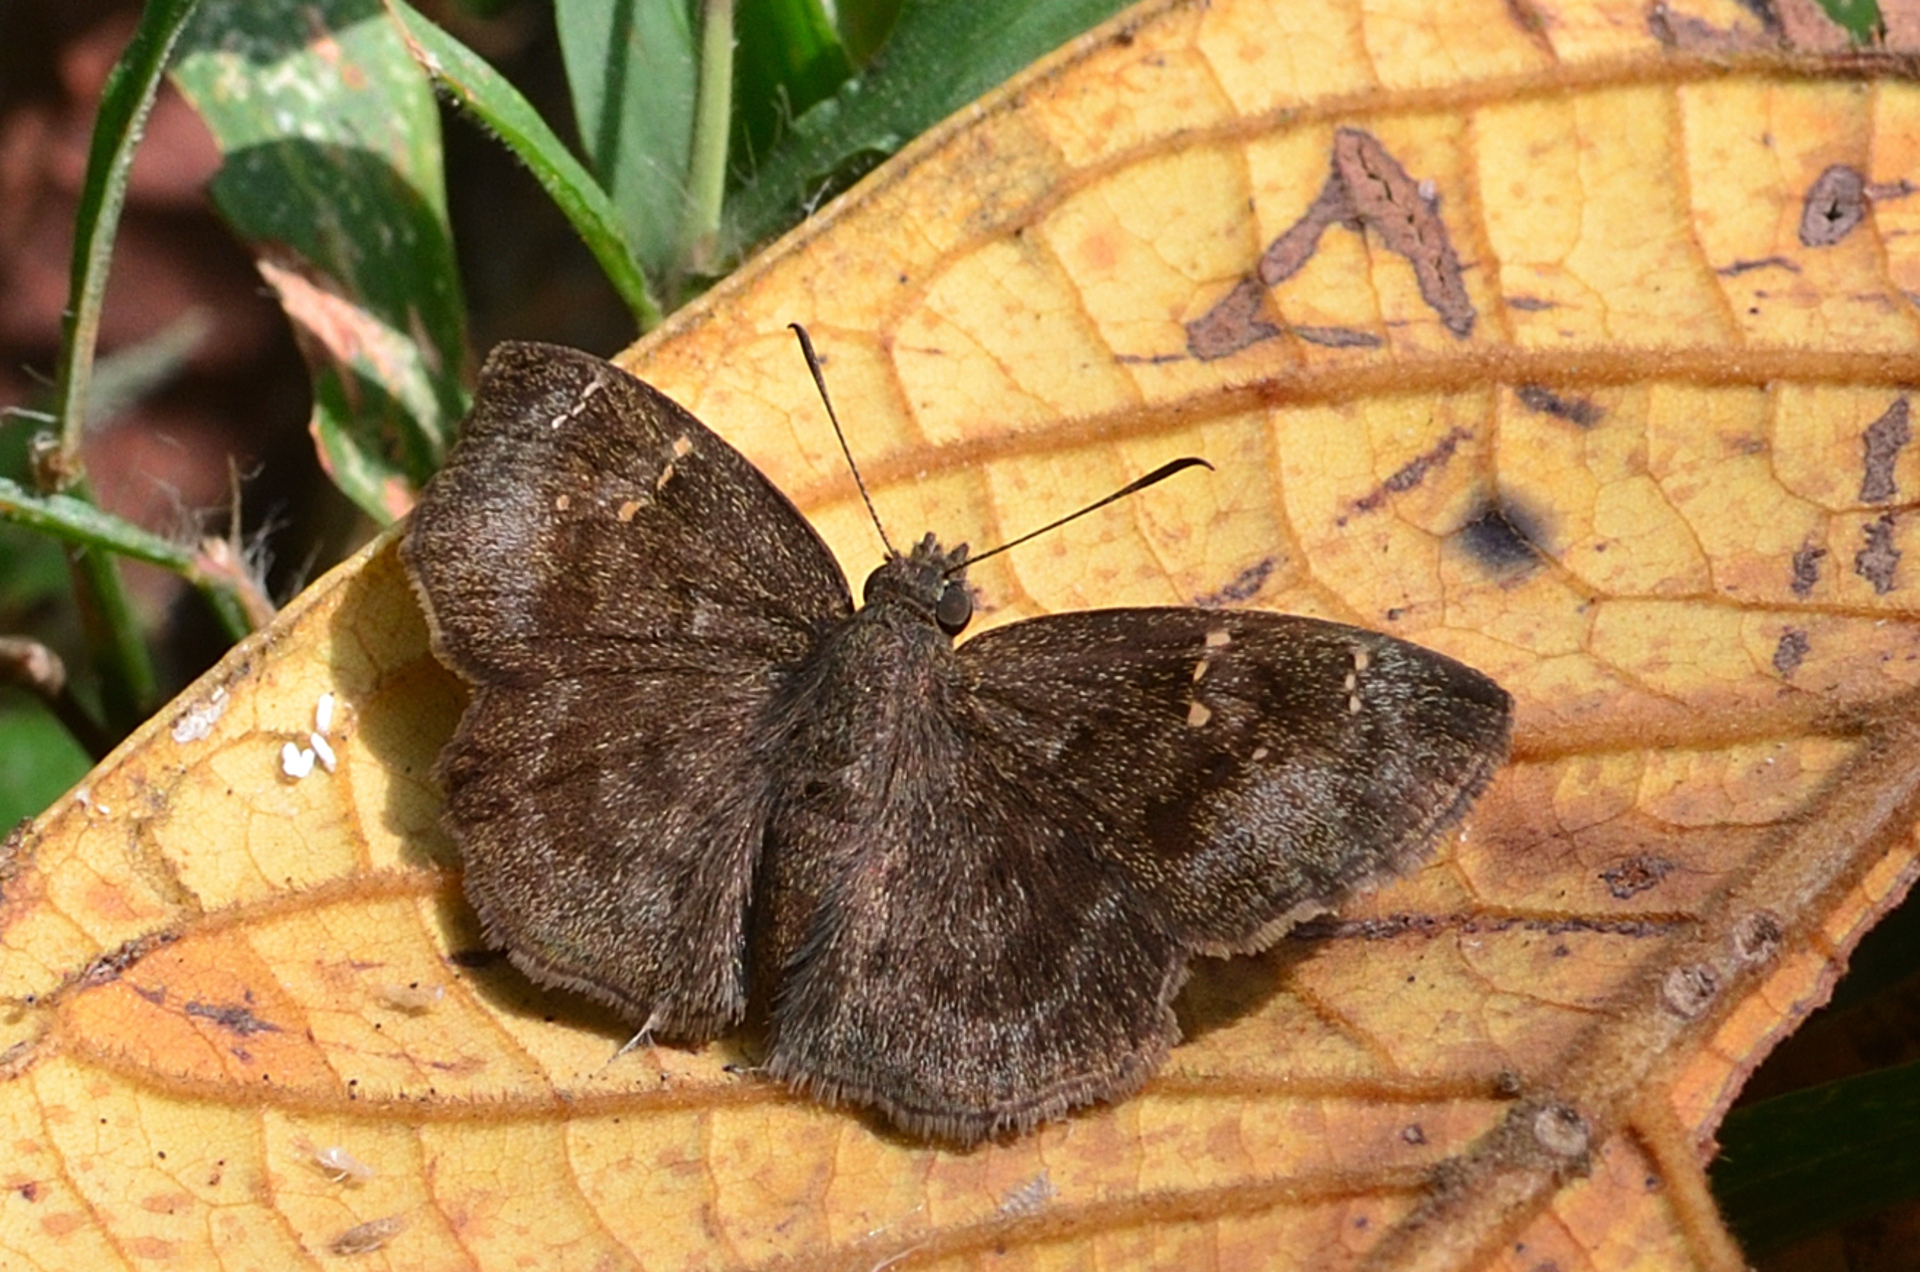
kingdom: Animalia
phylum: Arthropoda
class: Insecta
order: Lepidoptera
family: Hesperiidae
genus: Sarangesa
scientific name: Sarangesa dasahara
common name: Common small flat
